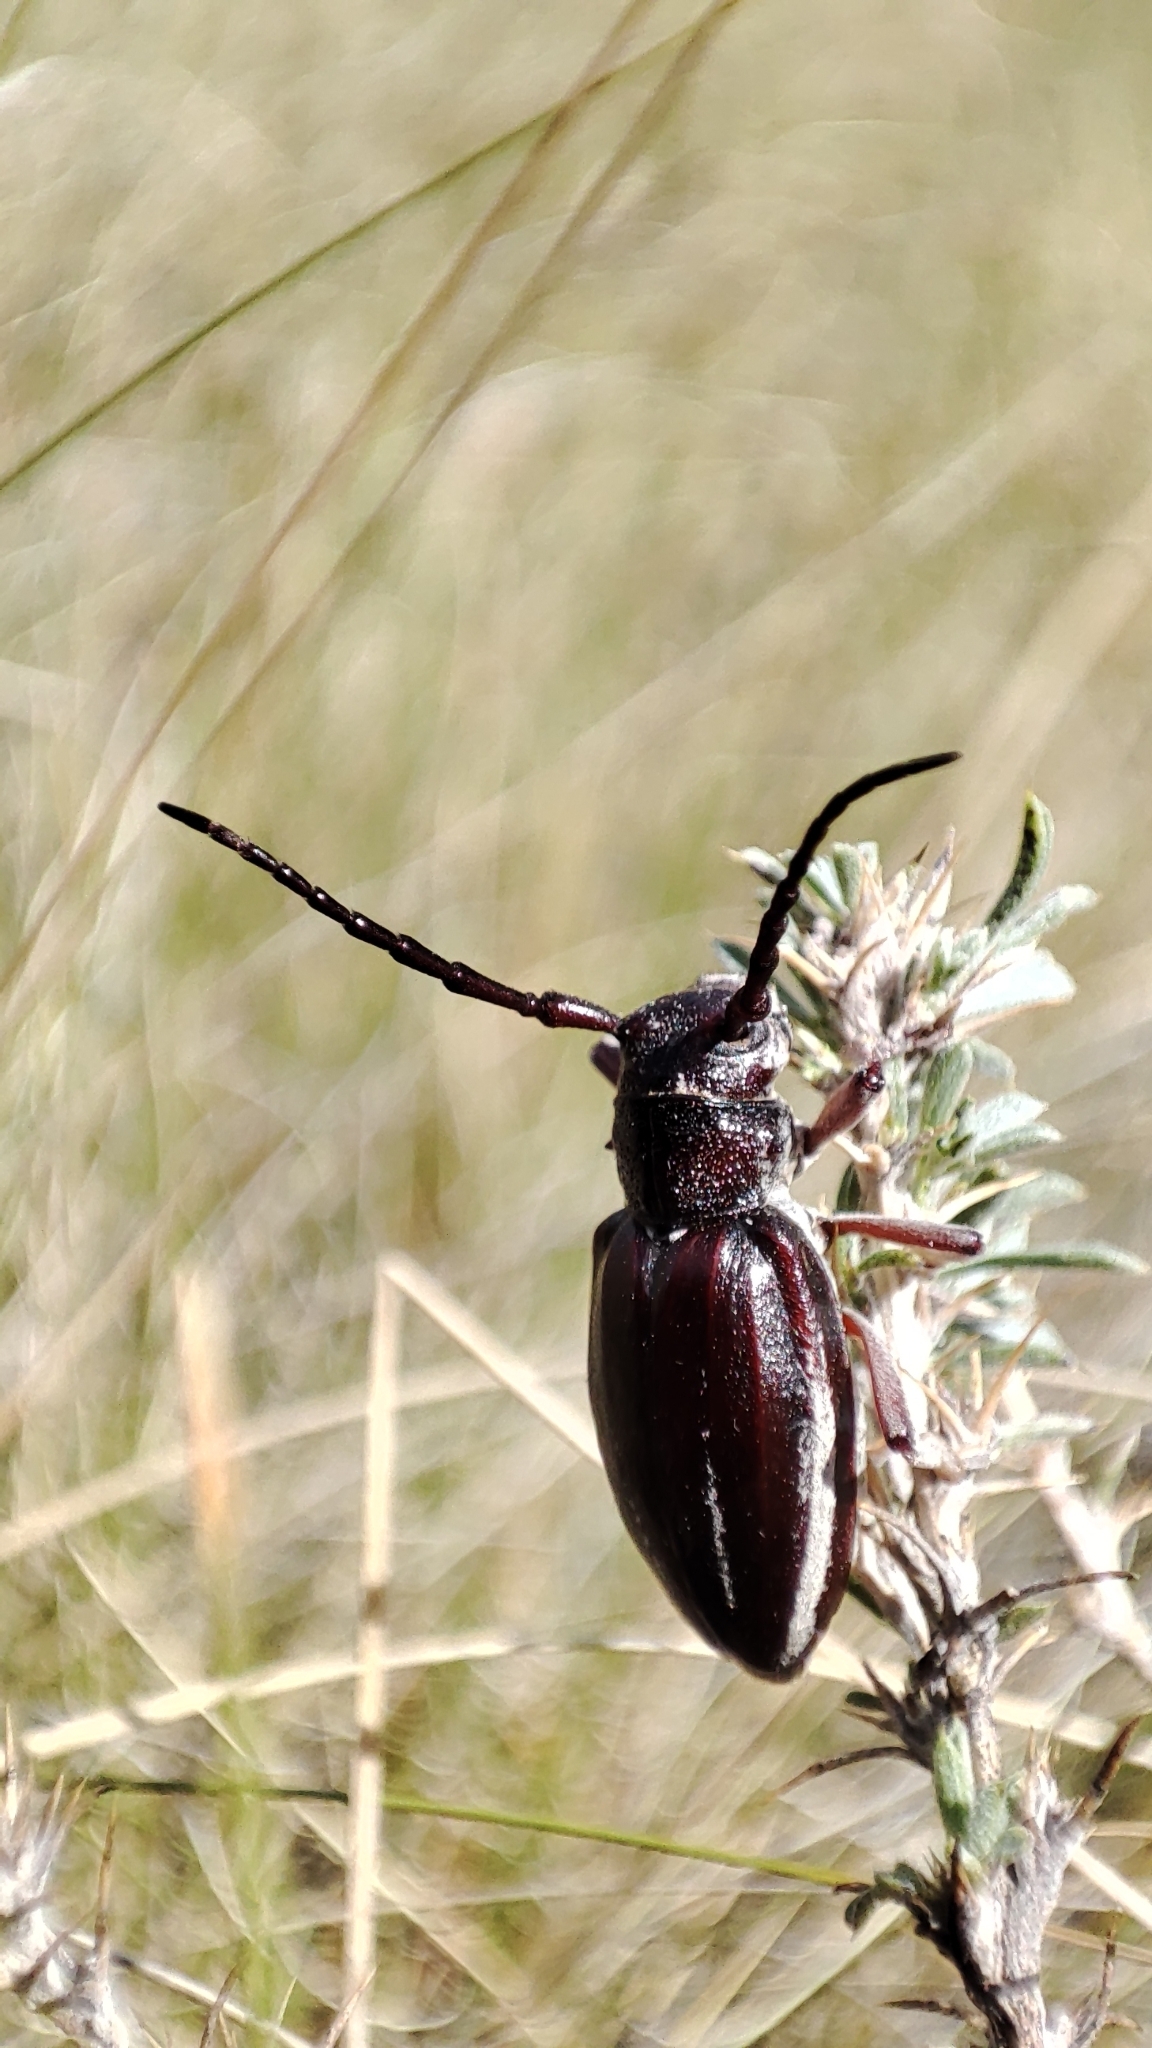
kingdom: Animalia
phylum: Arthropoda
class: Insecta
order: Coleoptera
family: Cerambycidae
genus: Eodorcadion
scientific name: Eodorcadion carinatum
